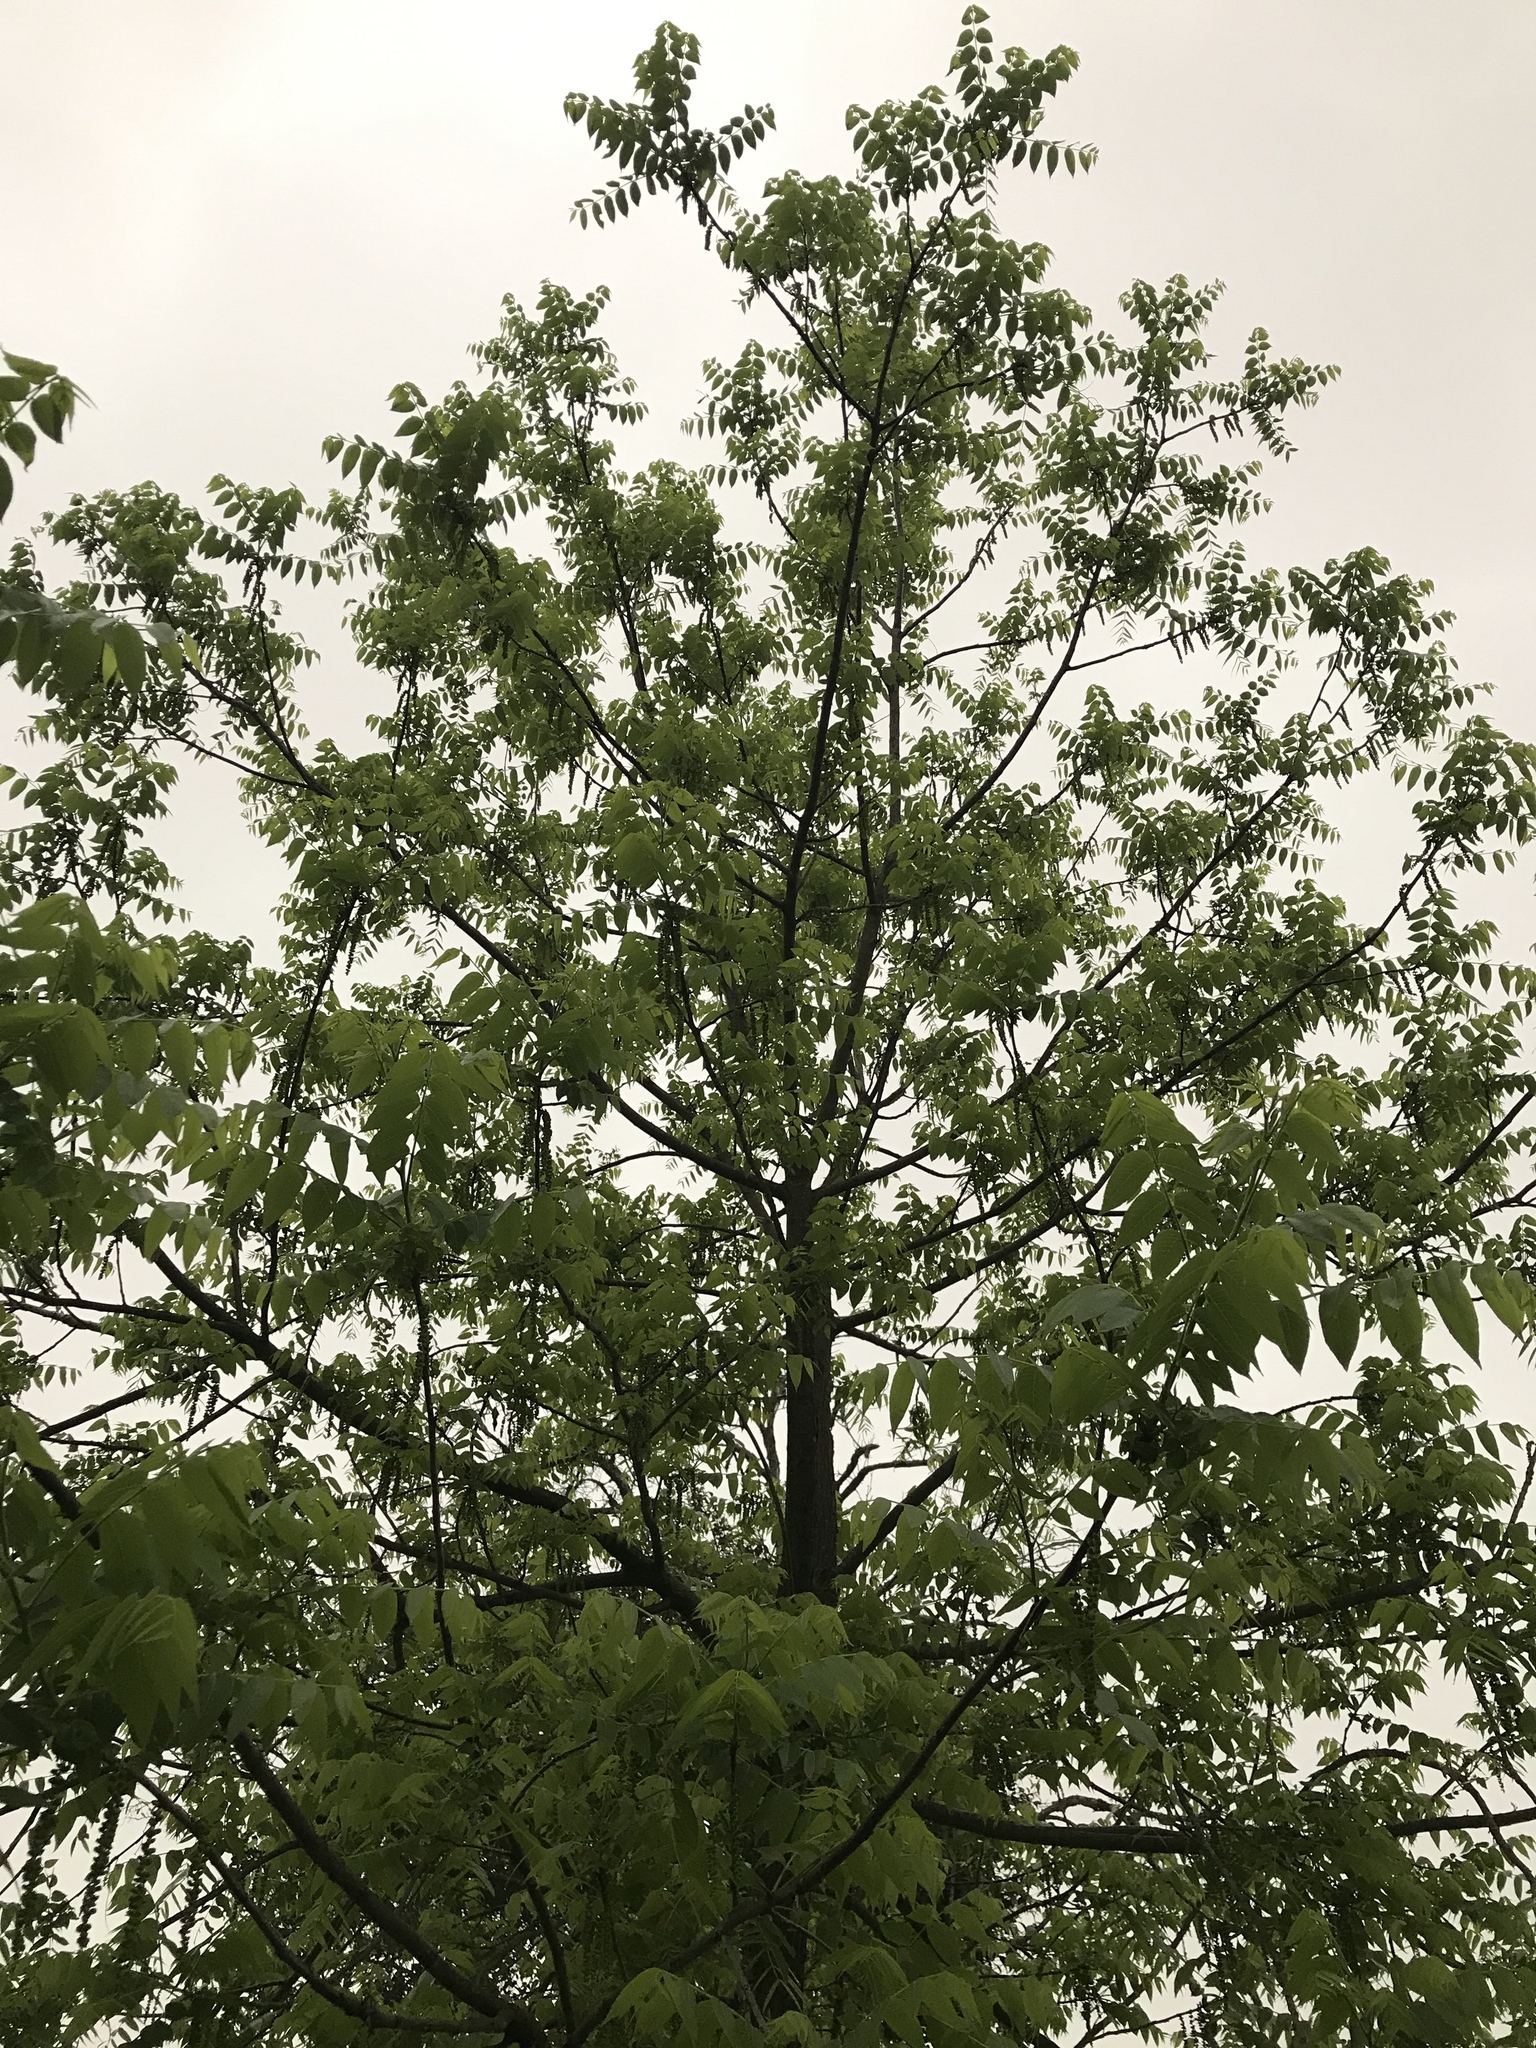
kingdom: Plantae
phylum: Tracheophyta
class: Magnoliopsida
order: Fagales
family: Juglandaceae
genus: Juglans
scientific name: Juglans nigra
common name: Black walnut
